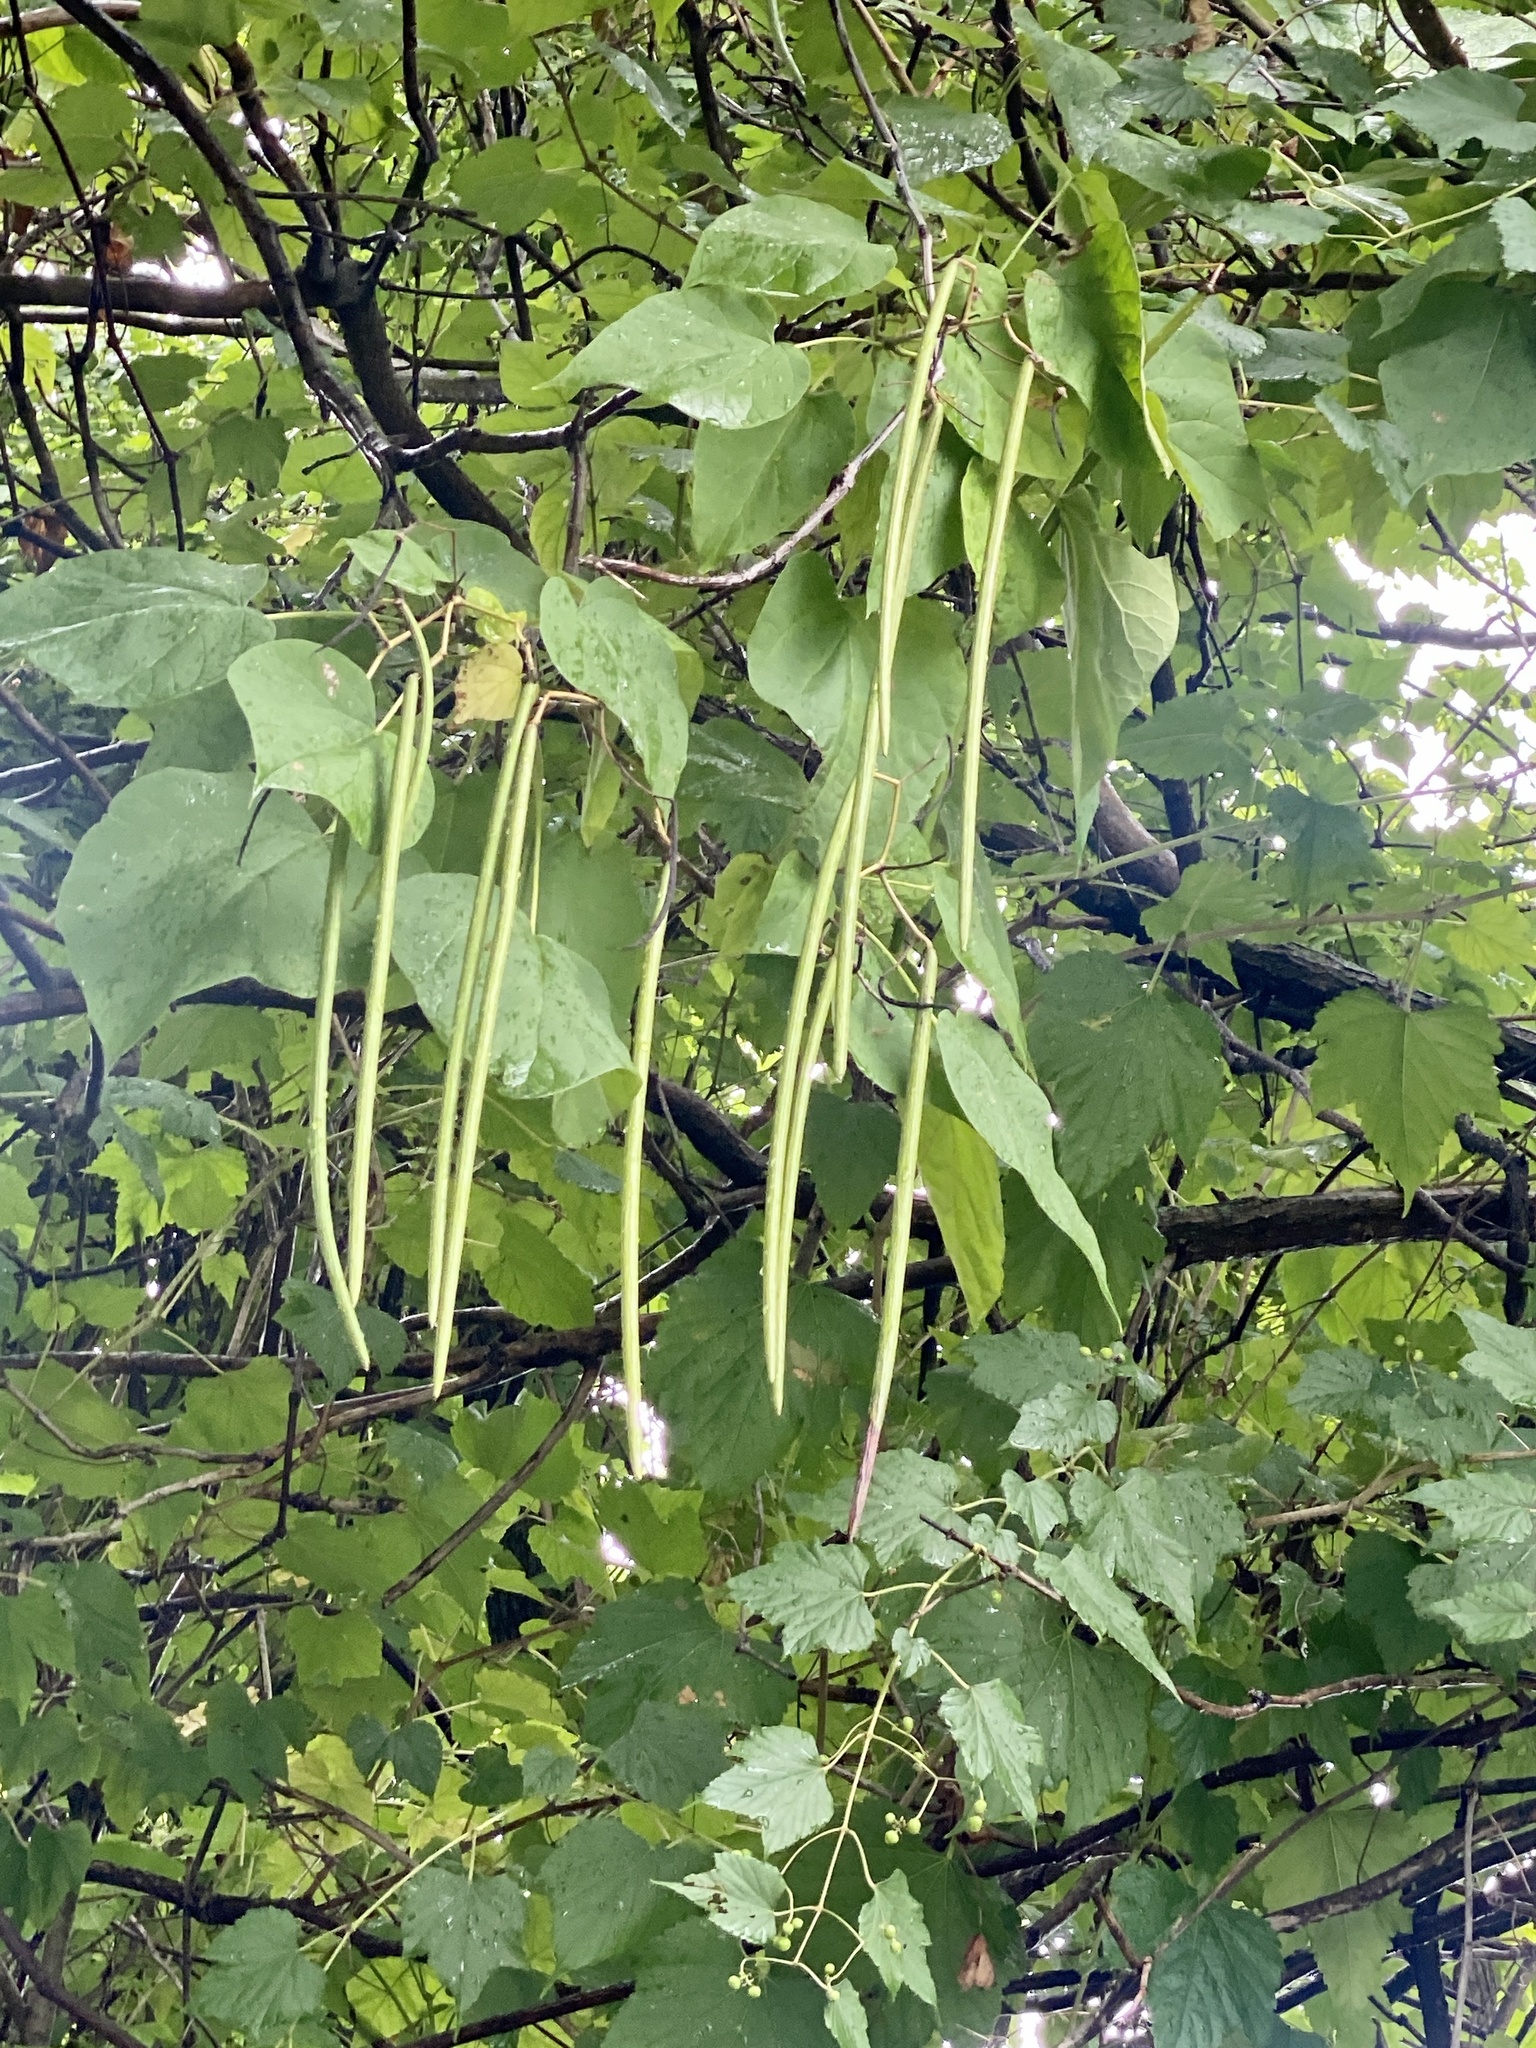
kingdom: Plantae
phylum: Tracheophyta
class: Magnoliopsida
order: Lamiales
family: Bignoniaceae
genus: Catalpa
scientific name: Catalpa speciosa
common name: Northern catalpa
